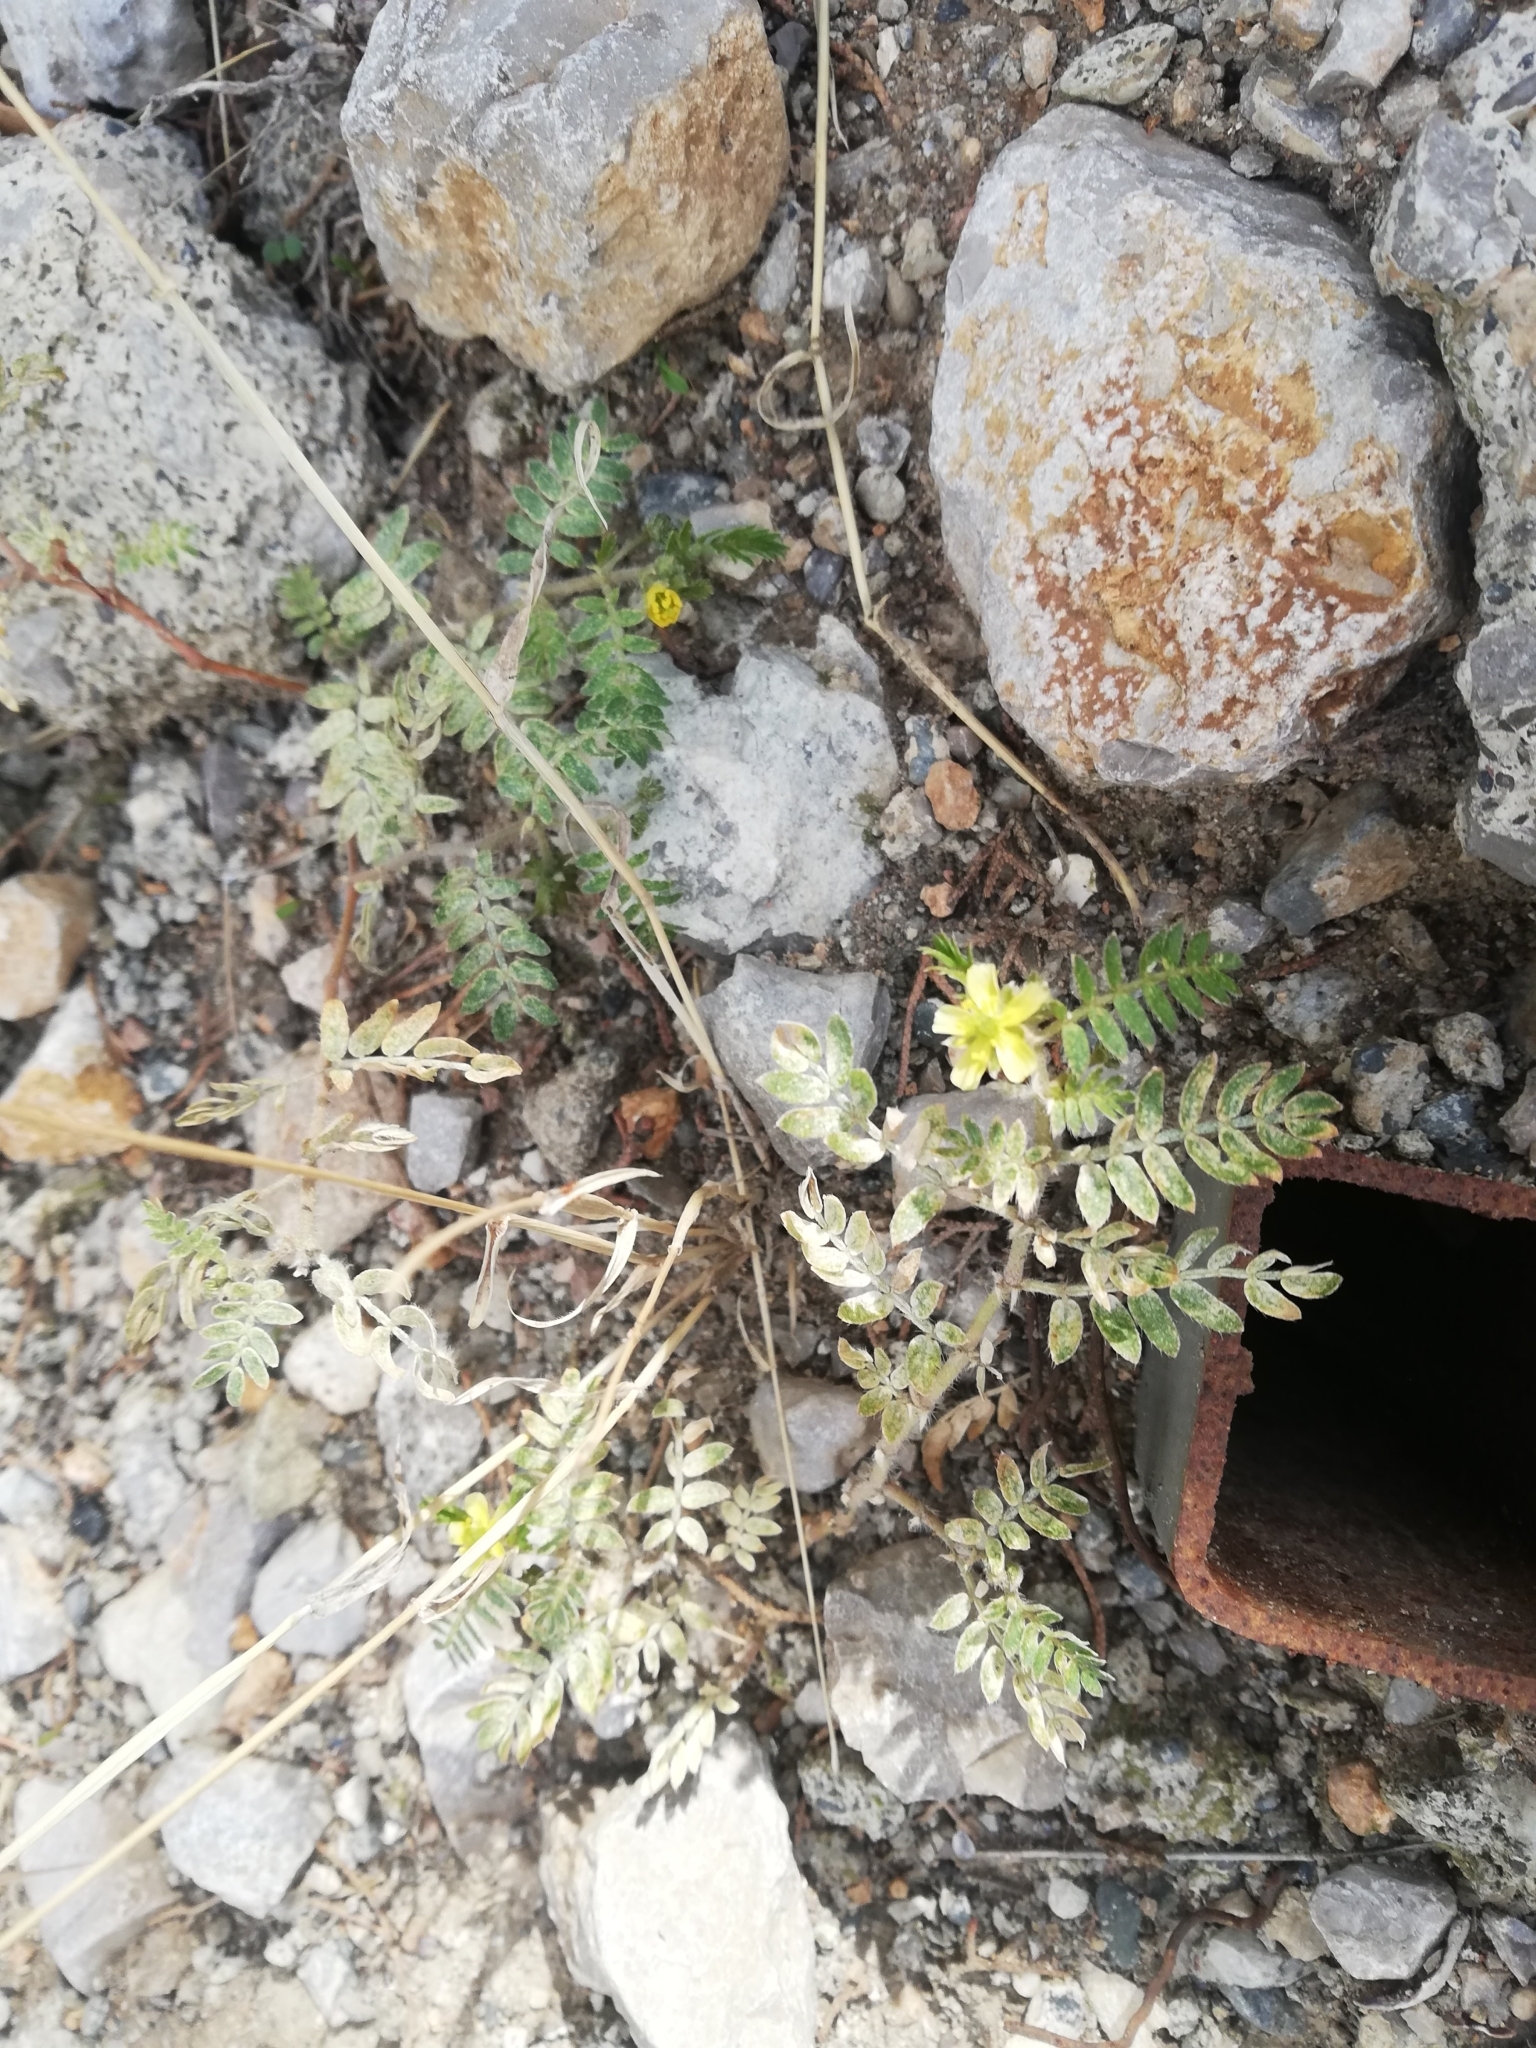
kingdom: Plantae
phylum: Tracheophyta
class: Magnoliopsida
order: Zygophyllales
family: Zygophyllaceae
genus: Tribulus
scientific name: Tribulus terrestris
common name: Puncturevine
